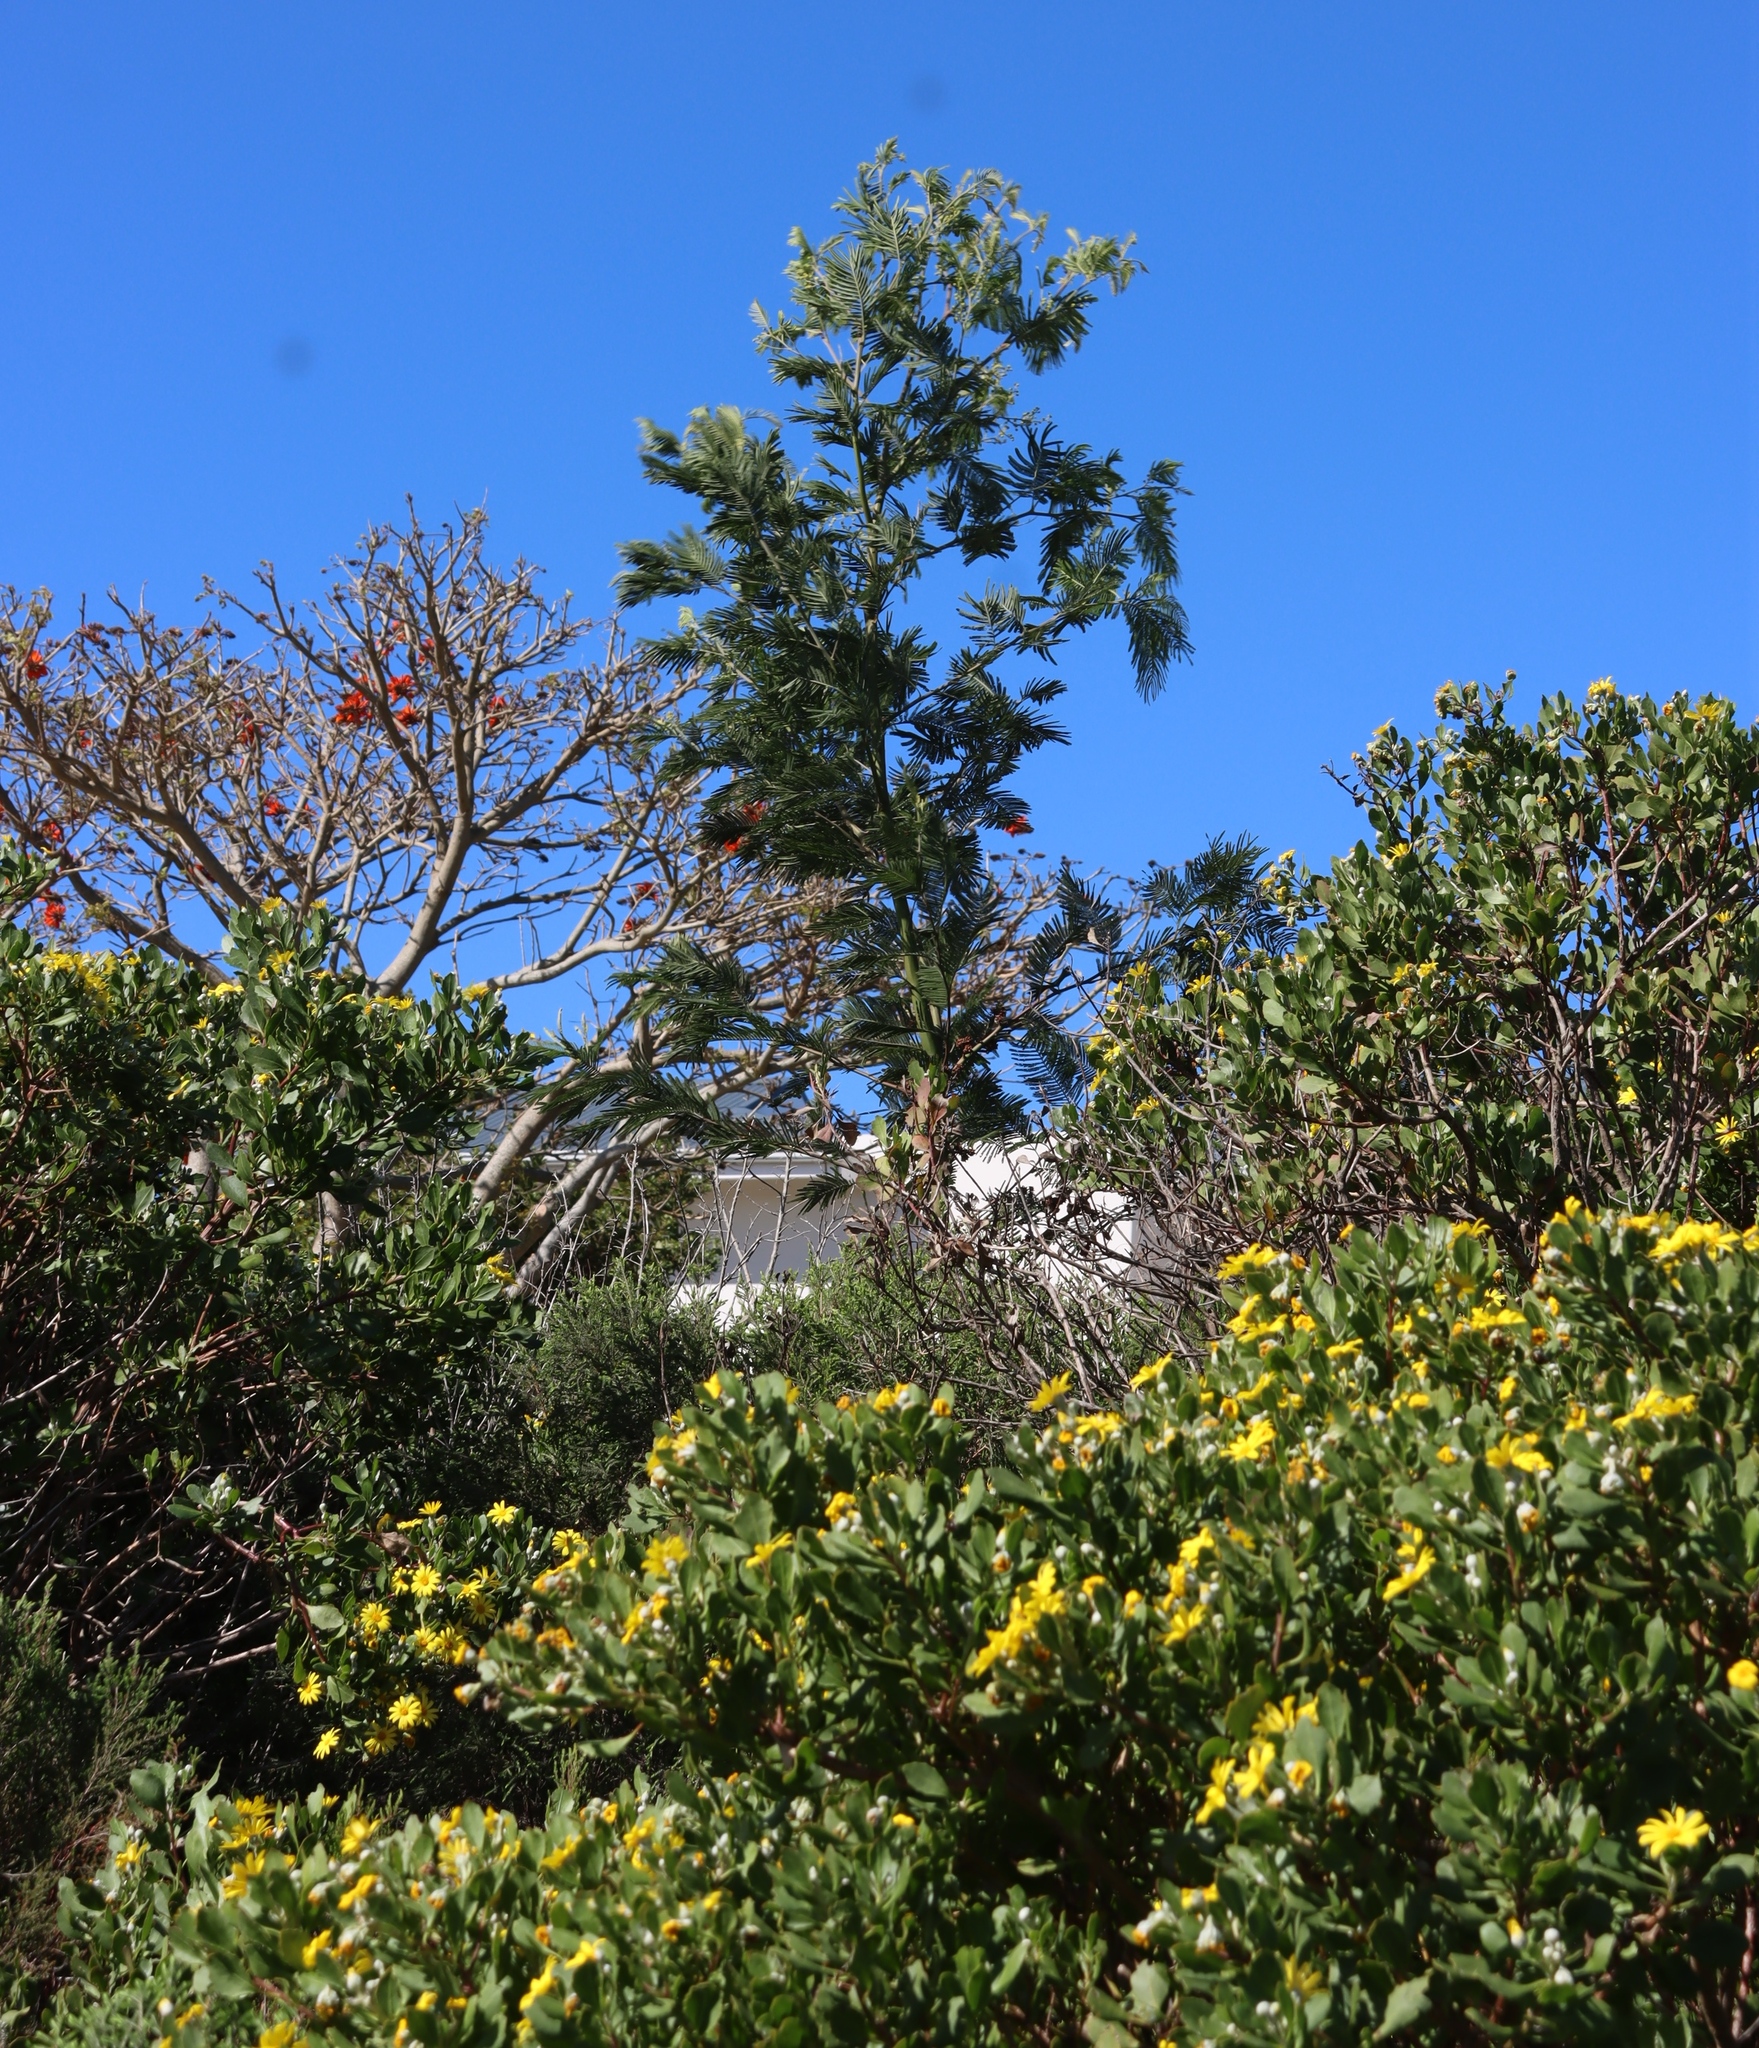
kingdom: Plantae
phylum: Tracheophyta
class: Magnoliopsida
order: Fabales
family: Fabaceae
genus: Acacia
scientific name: Acacia mearnsii
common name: Black wattle
